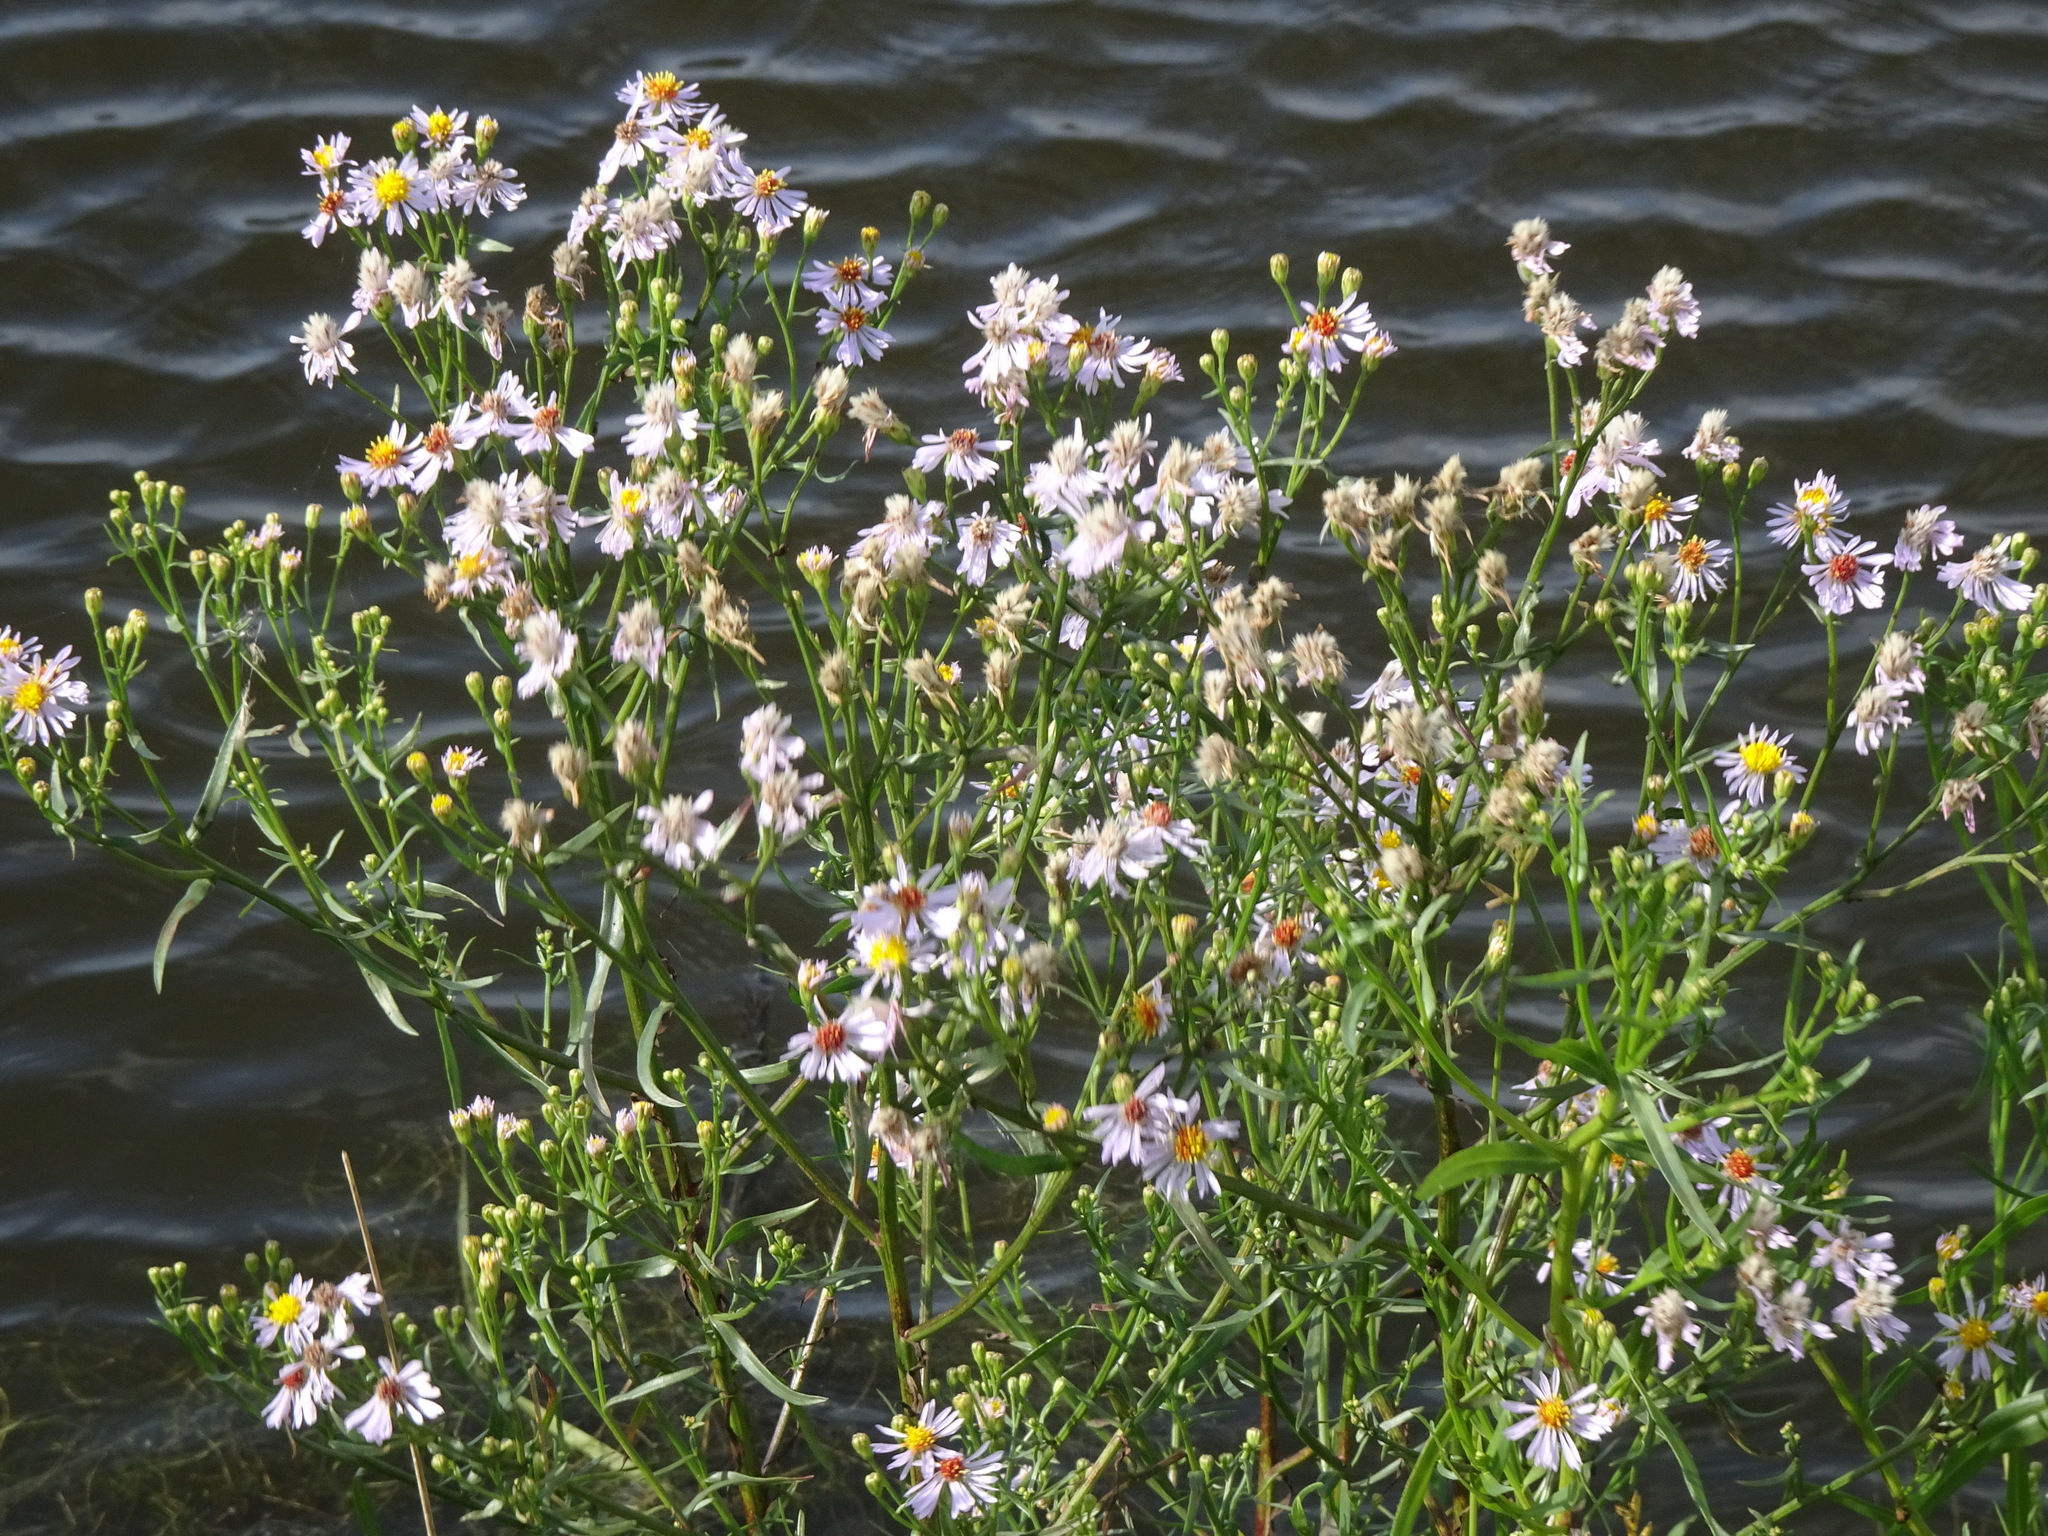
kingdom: Plantae
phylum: Tracheophyta
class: Magnoliopsida
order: Asterales
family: Asteraceae
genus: Tripolium
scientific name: Tripolium pannonicum
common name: Sea aster
